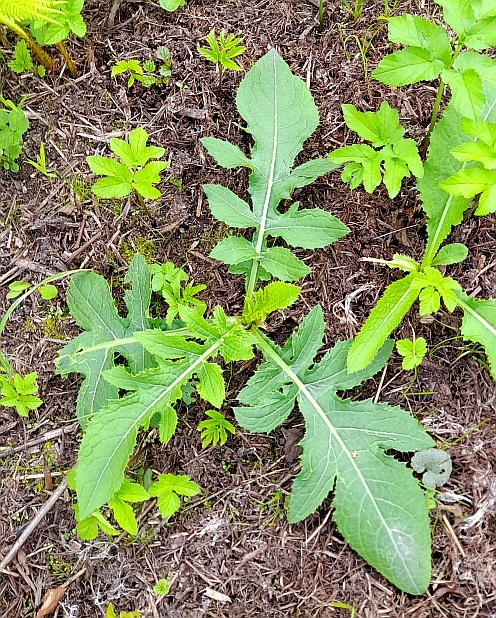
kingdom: Plantae
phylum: Tracheophyta
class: Magnoliopsida
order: Asterales
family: Asteraceae
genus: Cirsium
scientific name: Cirsium oleraceum
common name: Cabbage thistle
